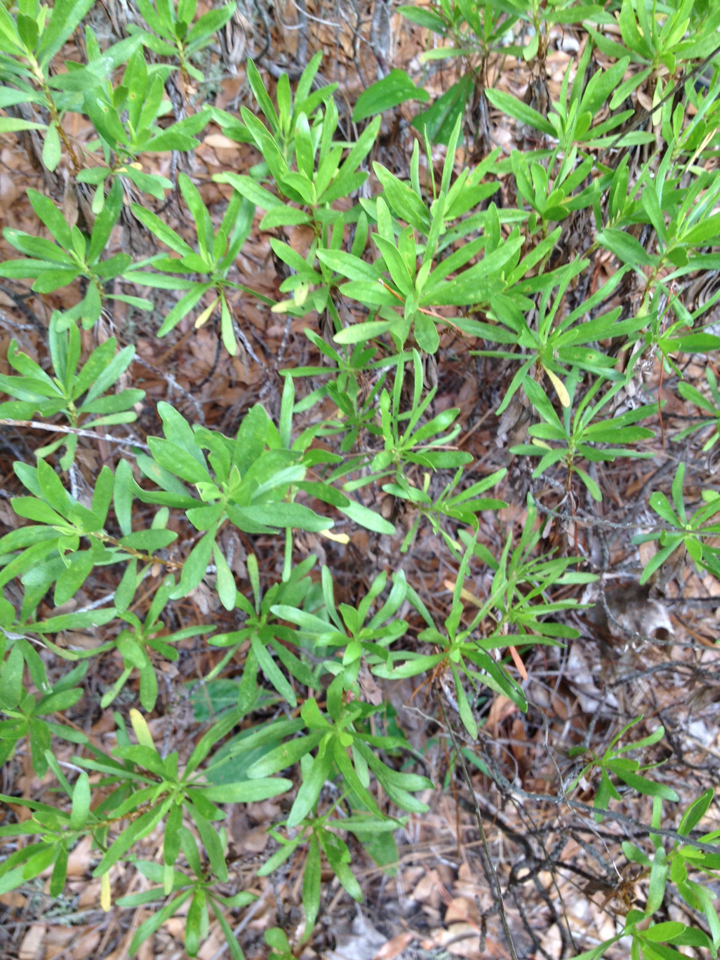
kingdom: Plantae
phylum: Tracheophyta
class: Magnoliopsida
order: Asterales
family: Asteraceae
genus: Chrysoma
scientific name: Chrysoma pauciflosculosa
